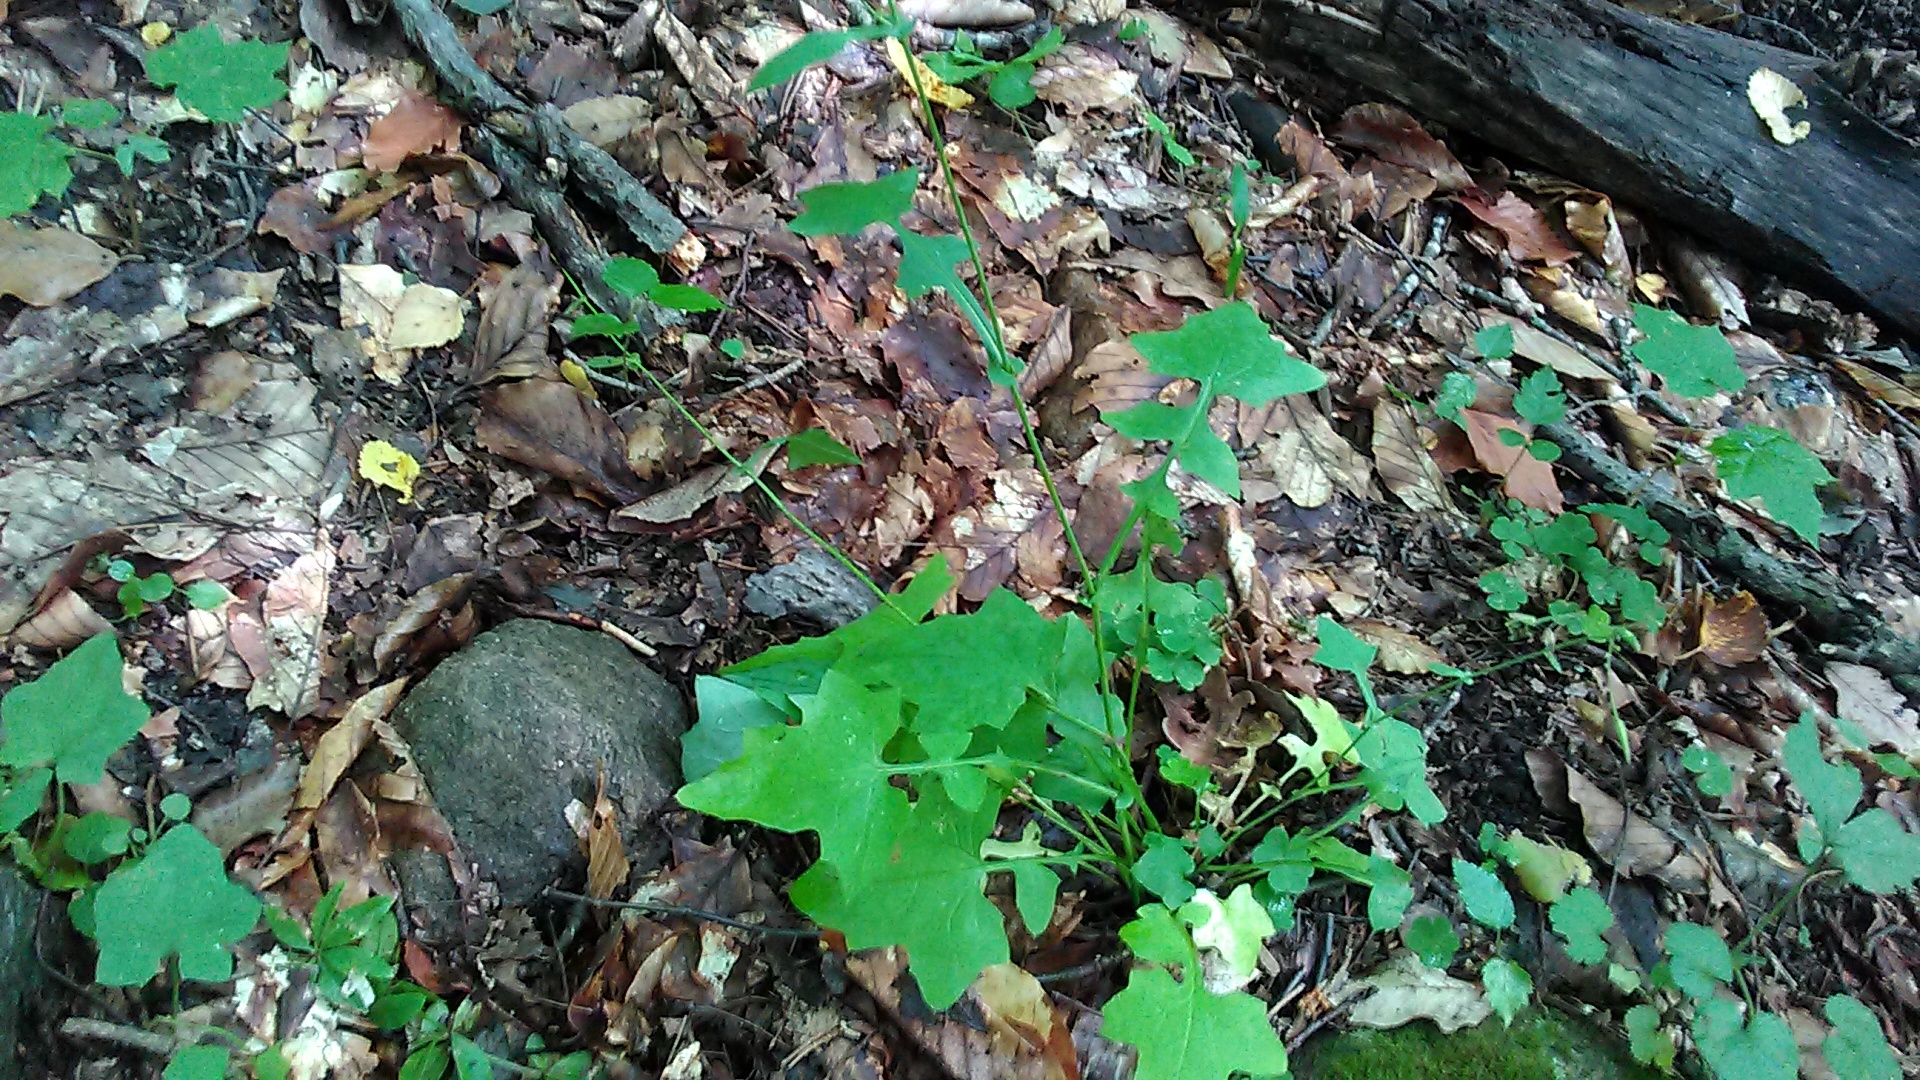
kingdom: Plantae
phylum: Tracheophyta
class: Magnoliopsida
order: Asterales
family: Asteraceae
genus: Mycelis
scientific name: Mycelis muralis
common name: Wall lettuce
